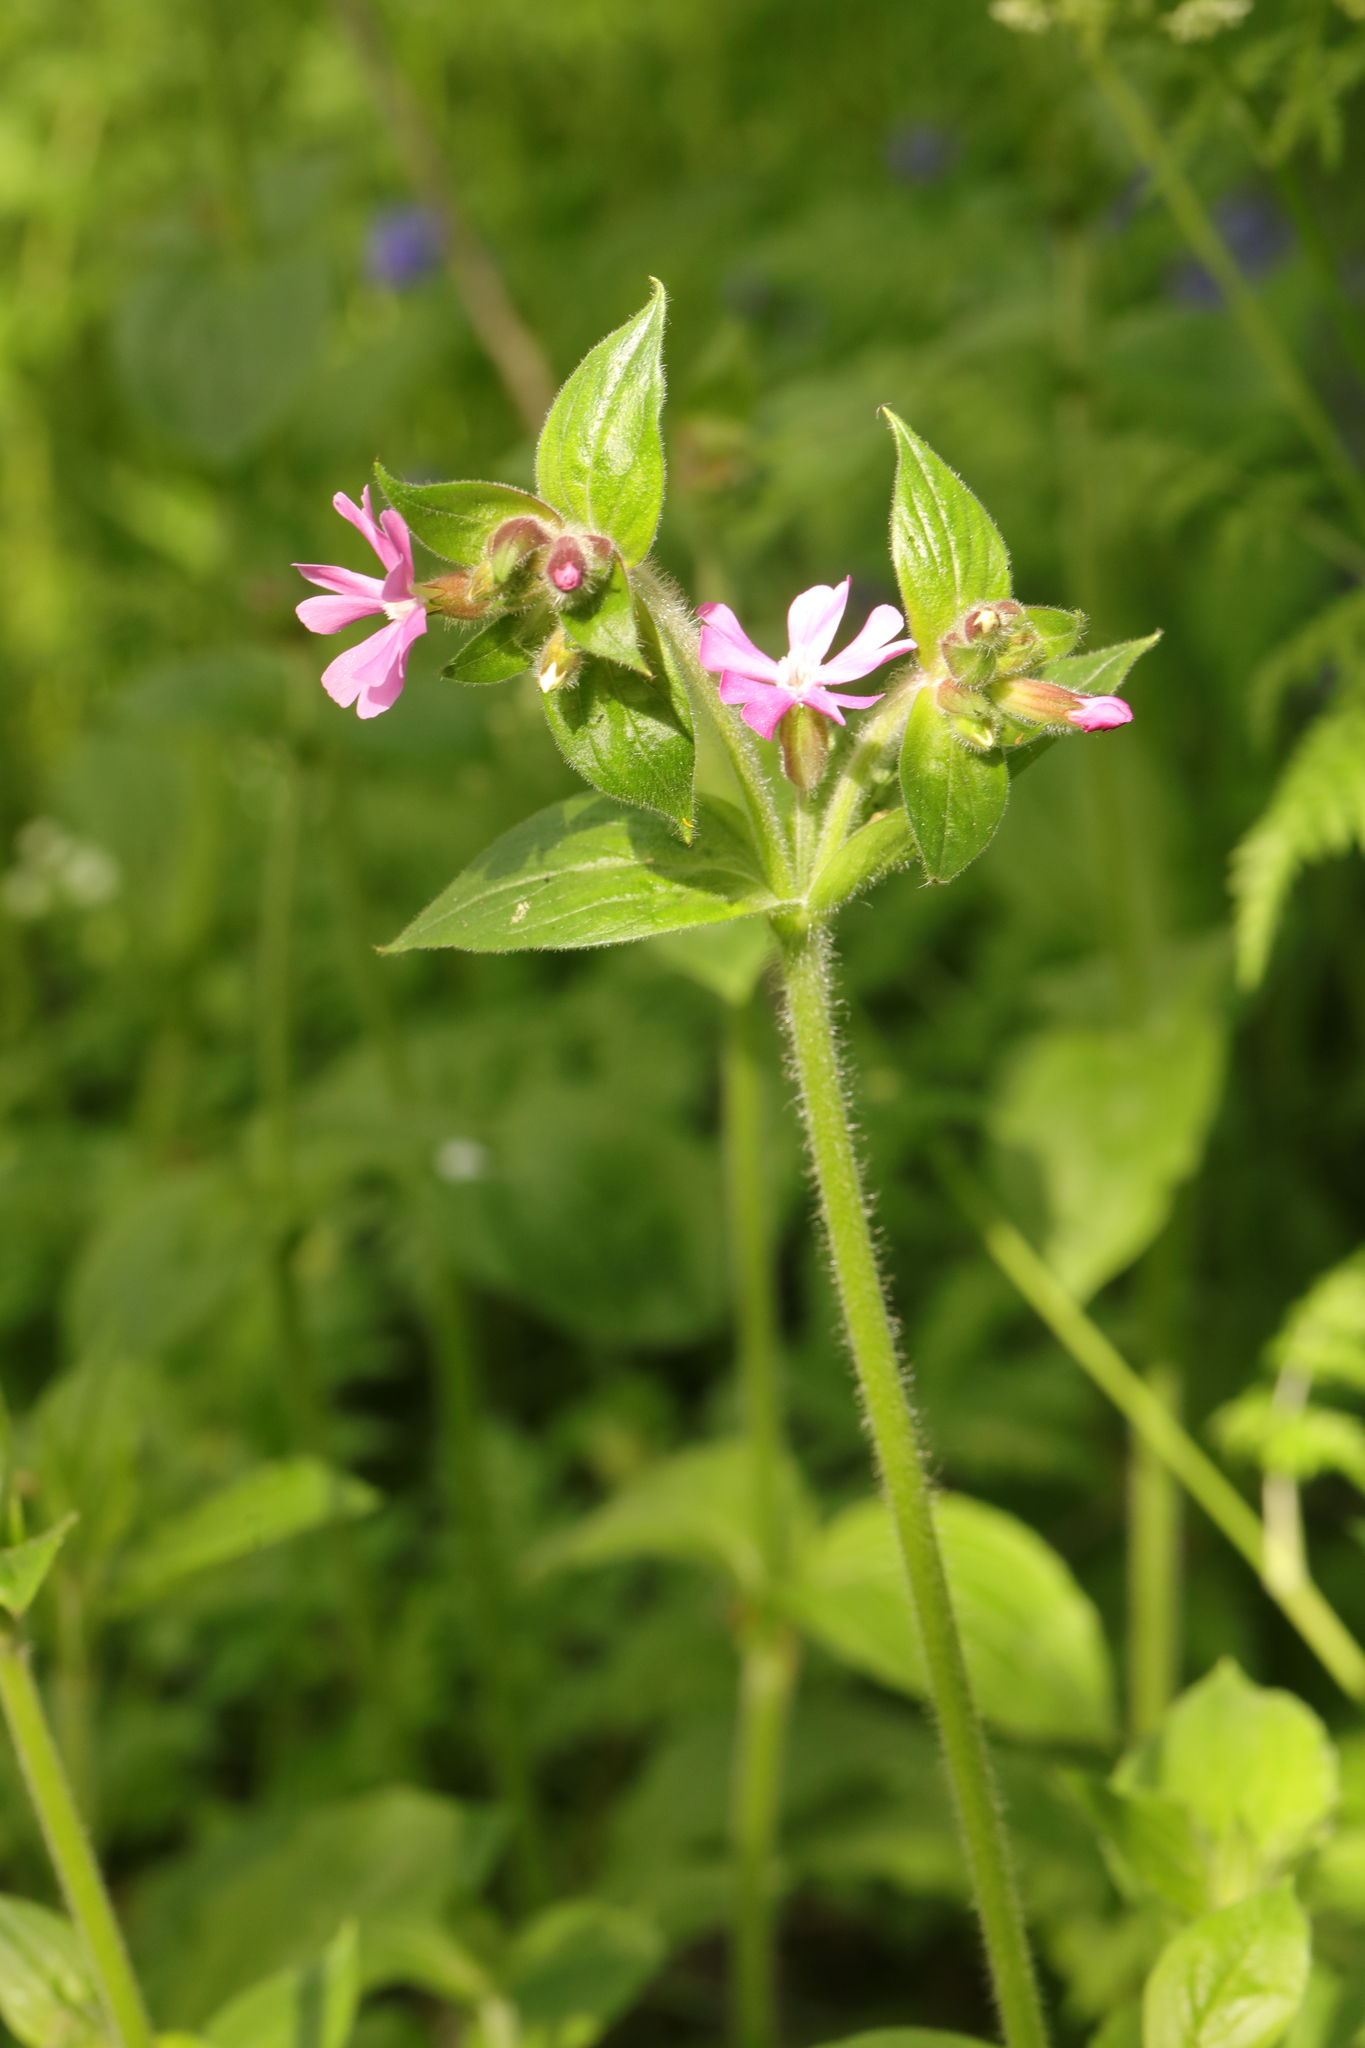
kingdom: Plantae
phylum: Tracheophyta
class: Magnoliopsida
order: Caryophyllales
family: Caryophyllaceae
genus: Silene
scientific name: Silene dioica
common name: Red campion
